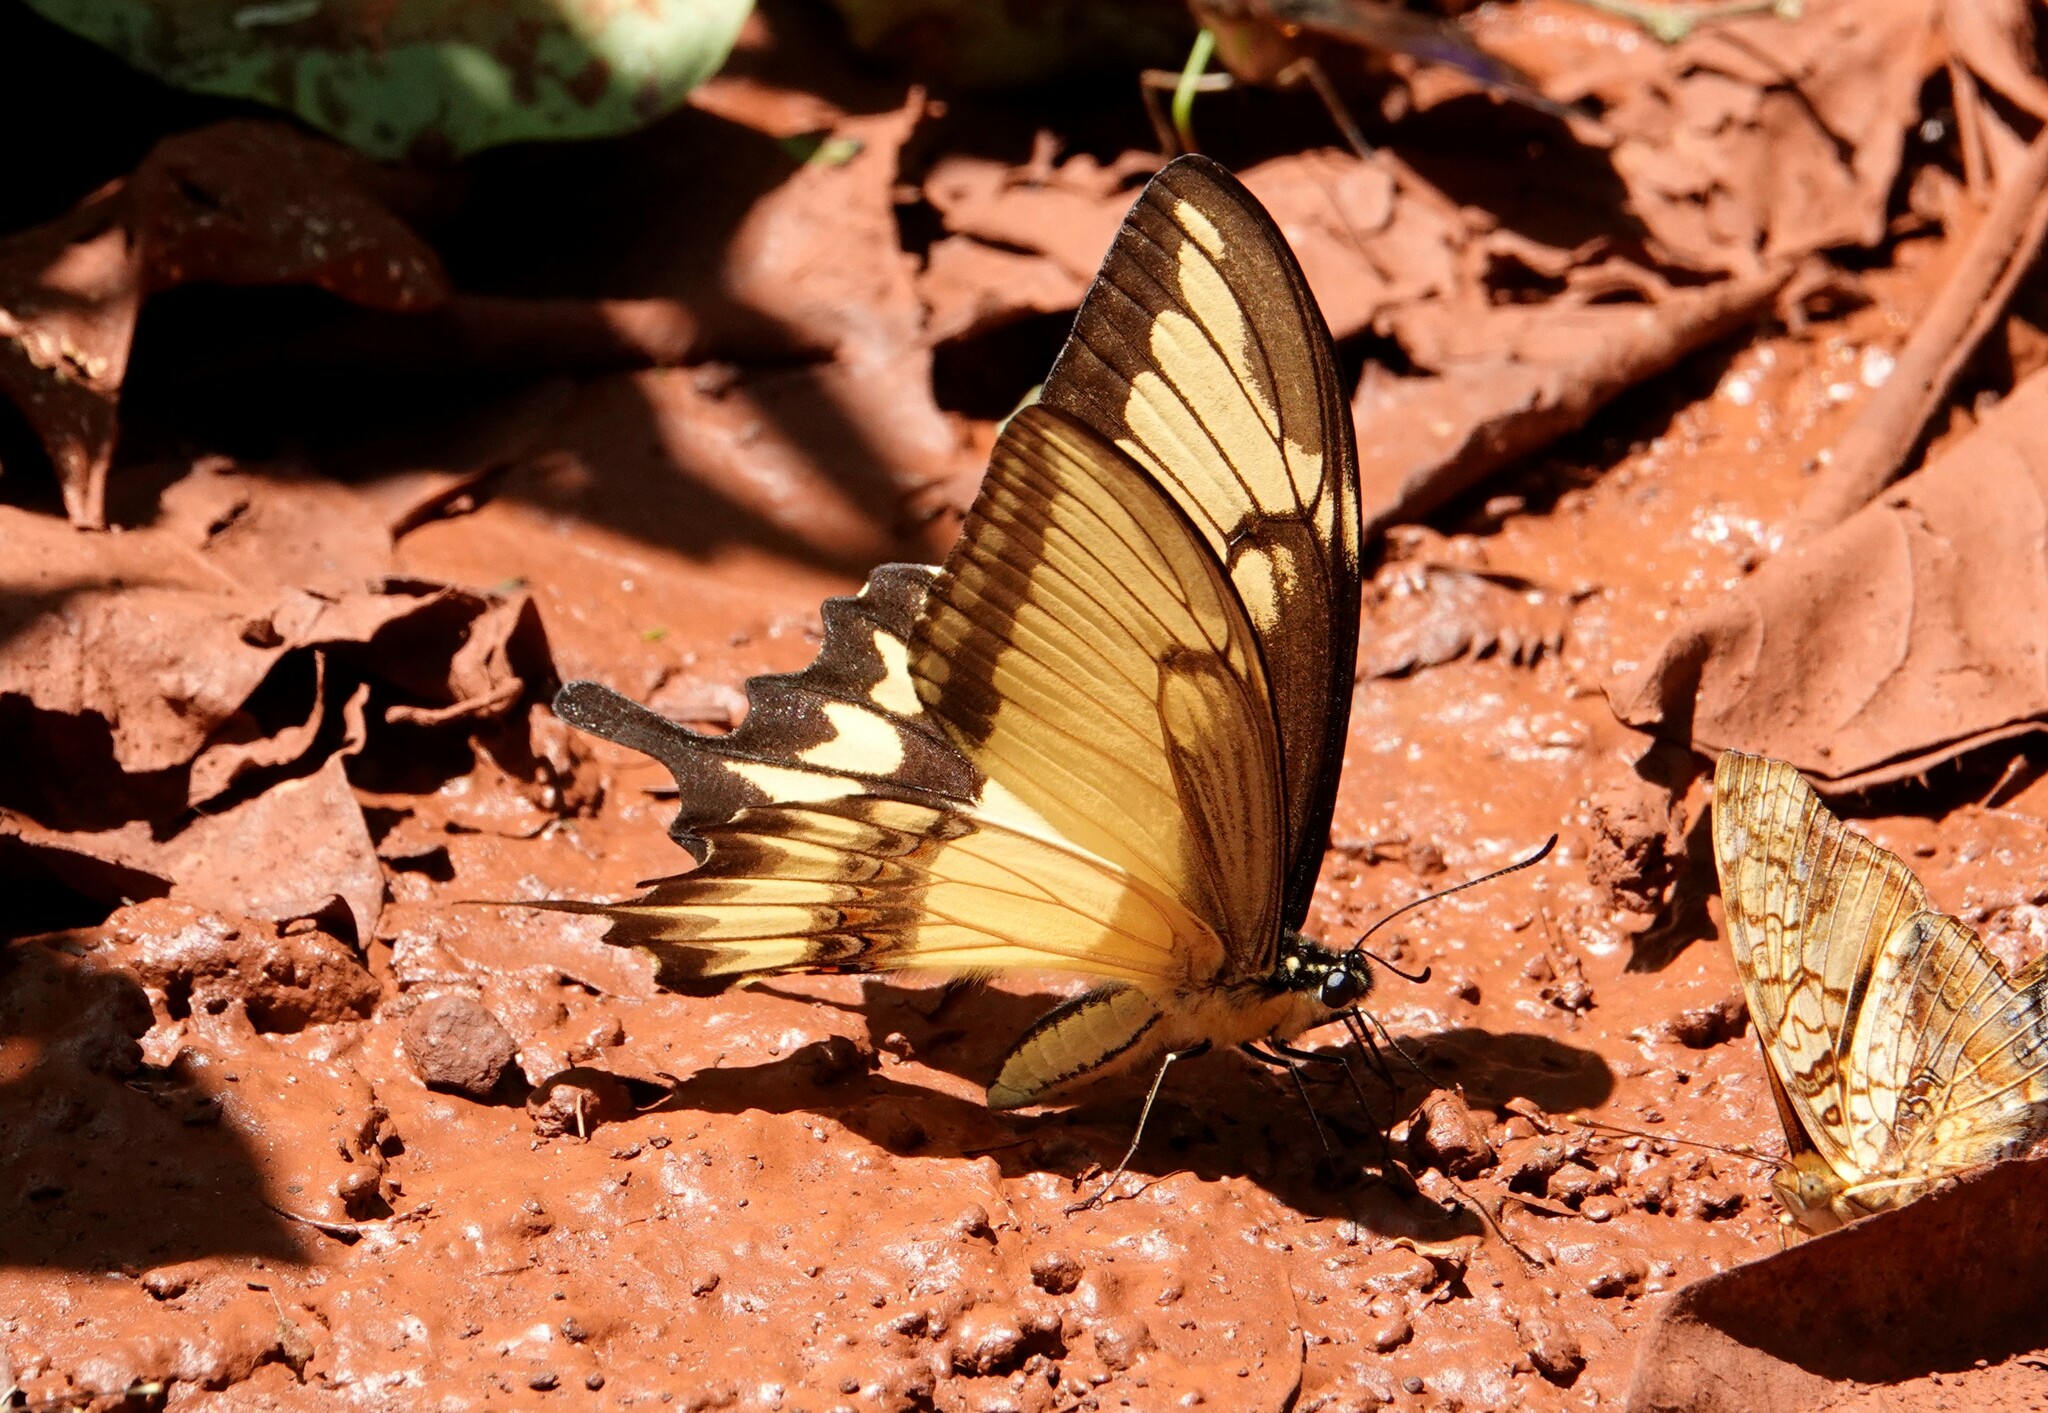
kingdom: Animalia
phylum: Arthropoda
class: Insecta
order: Lepidoptera
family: Papilionidae
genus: Papilio
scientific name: Papilio astyalus
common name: Astyalus swallowtail
